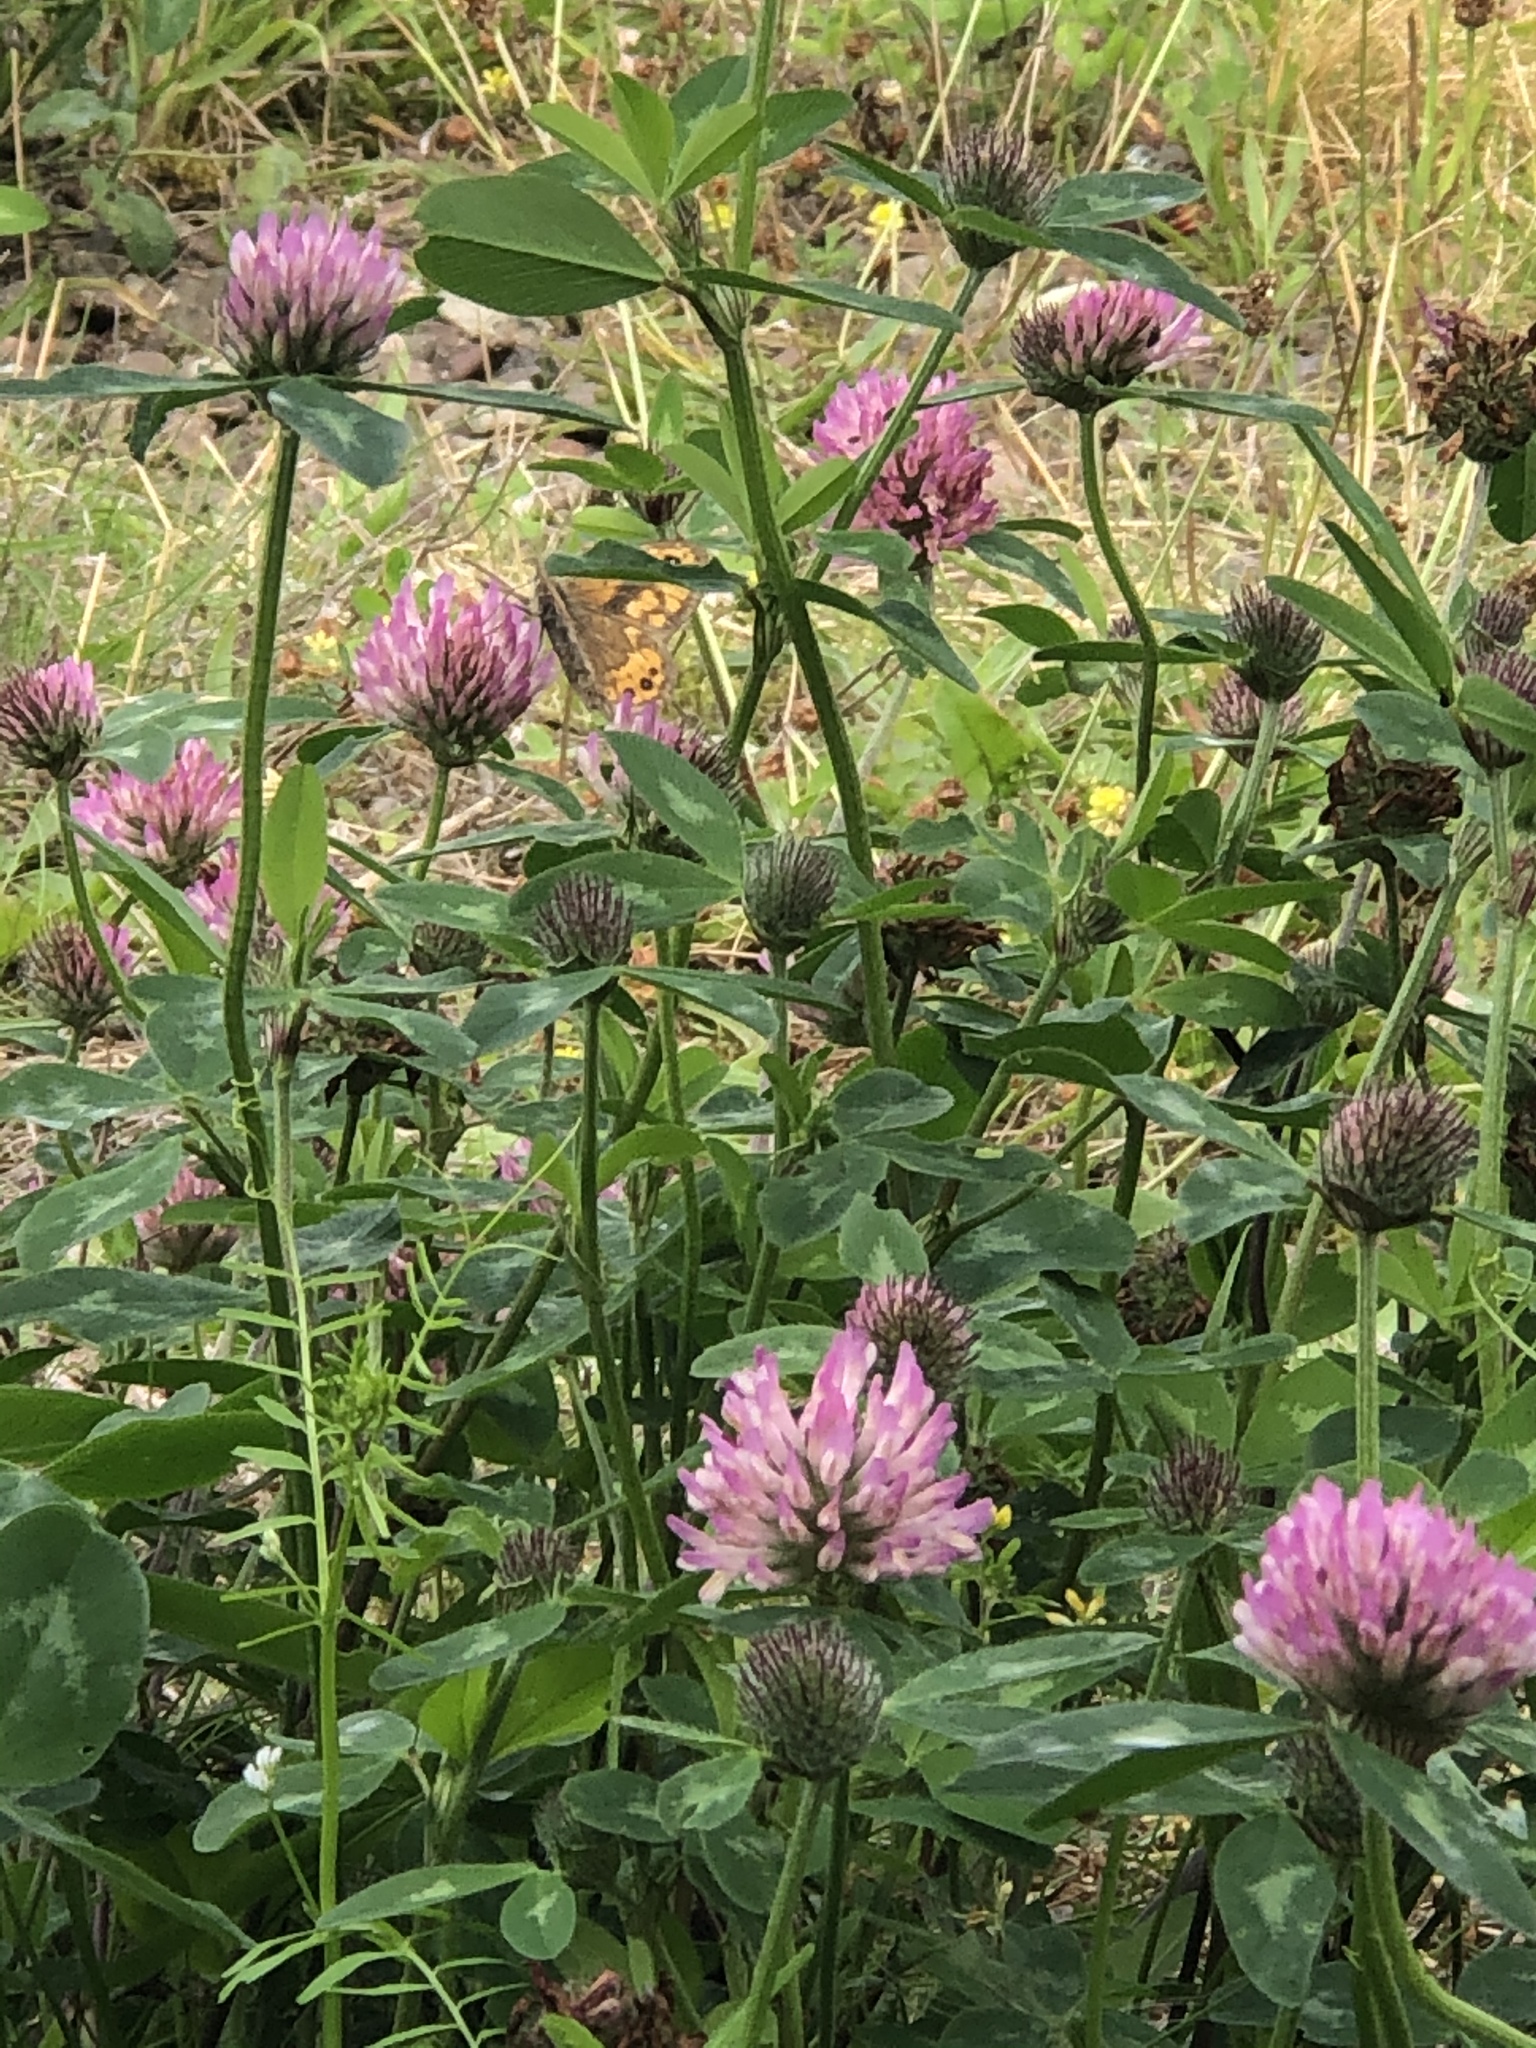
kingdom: Animalia
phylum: Arthropoda
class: Insecta
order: Lepidoptera
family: Nymphalidae
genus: Pararge
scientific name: Pararge Lasiommata megera
